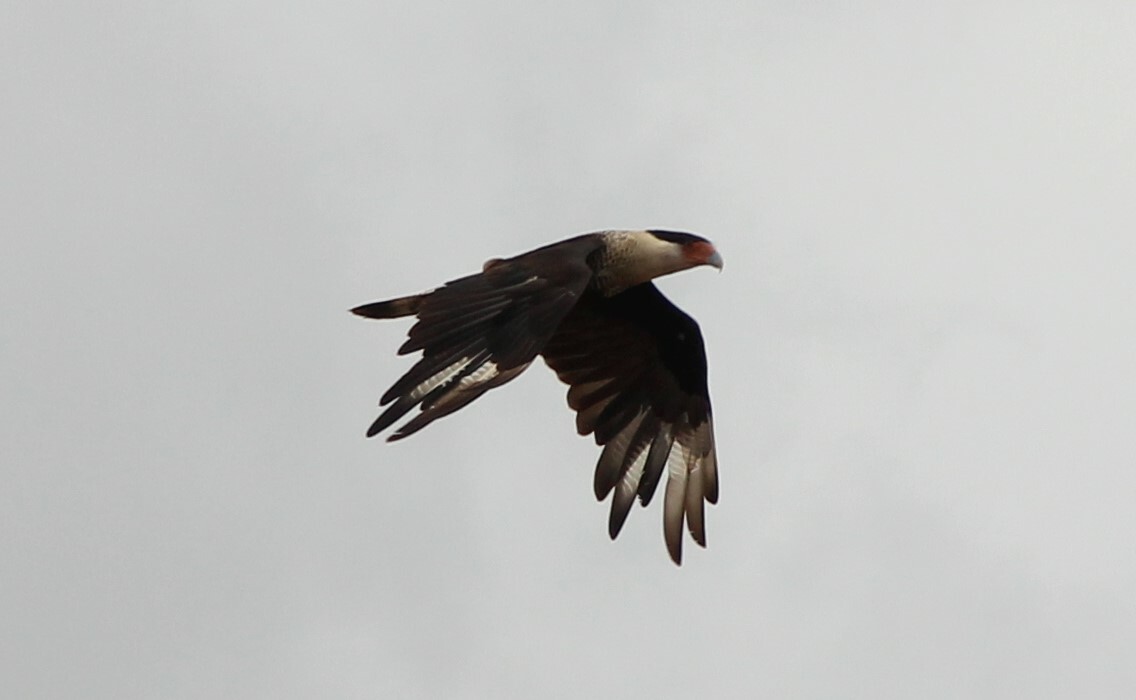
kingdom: Animalia
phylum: Chordata
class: Aves
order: Falconiformes
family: Falconidae
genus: Caracara
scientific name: Caracara plancus
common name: Southern caracara
